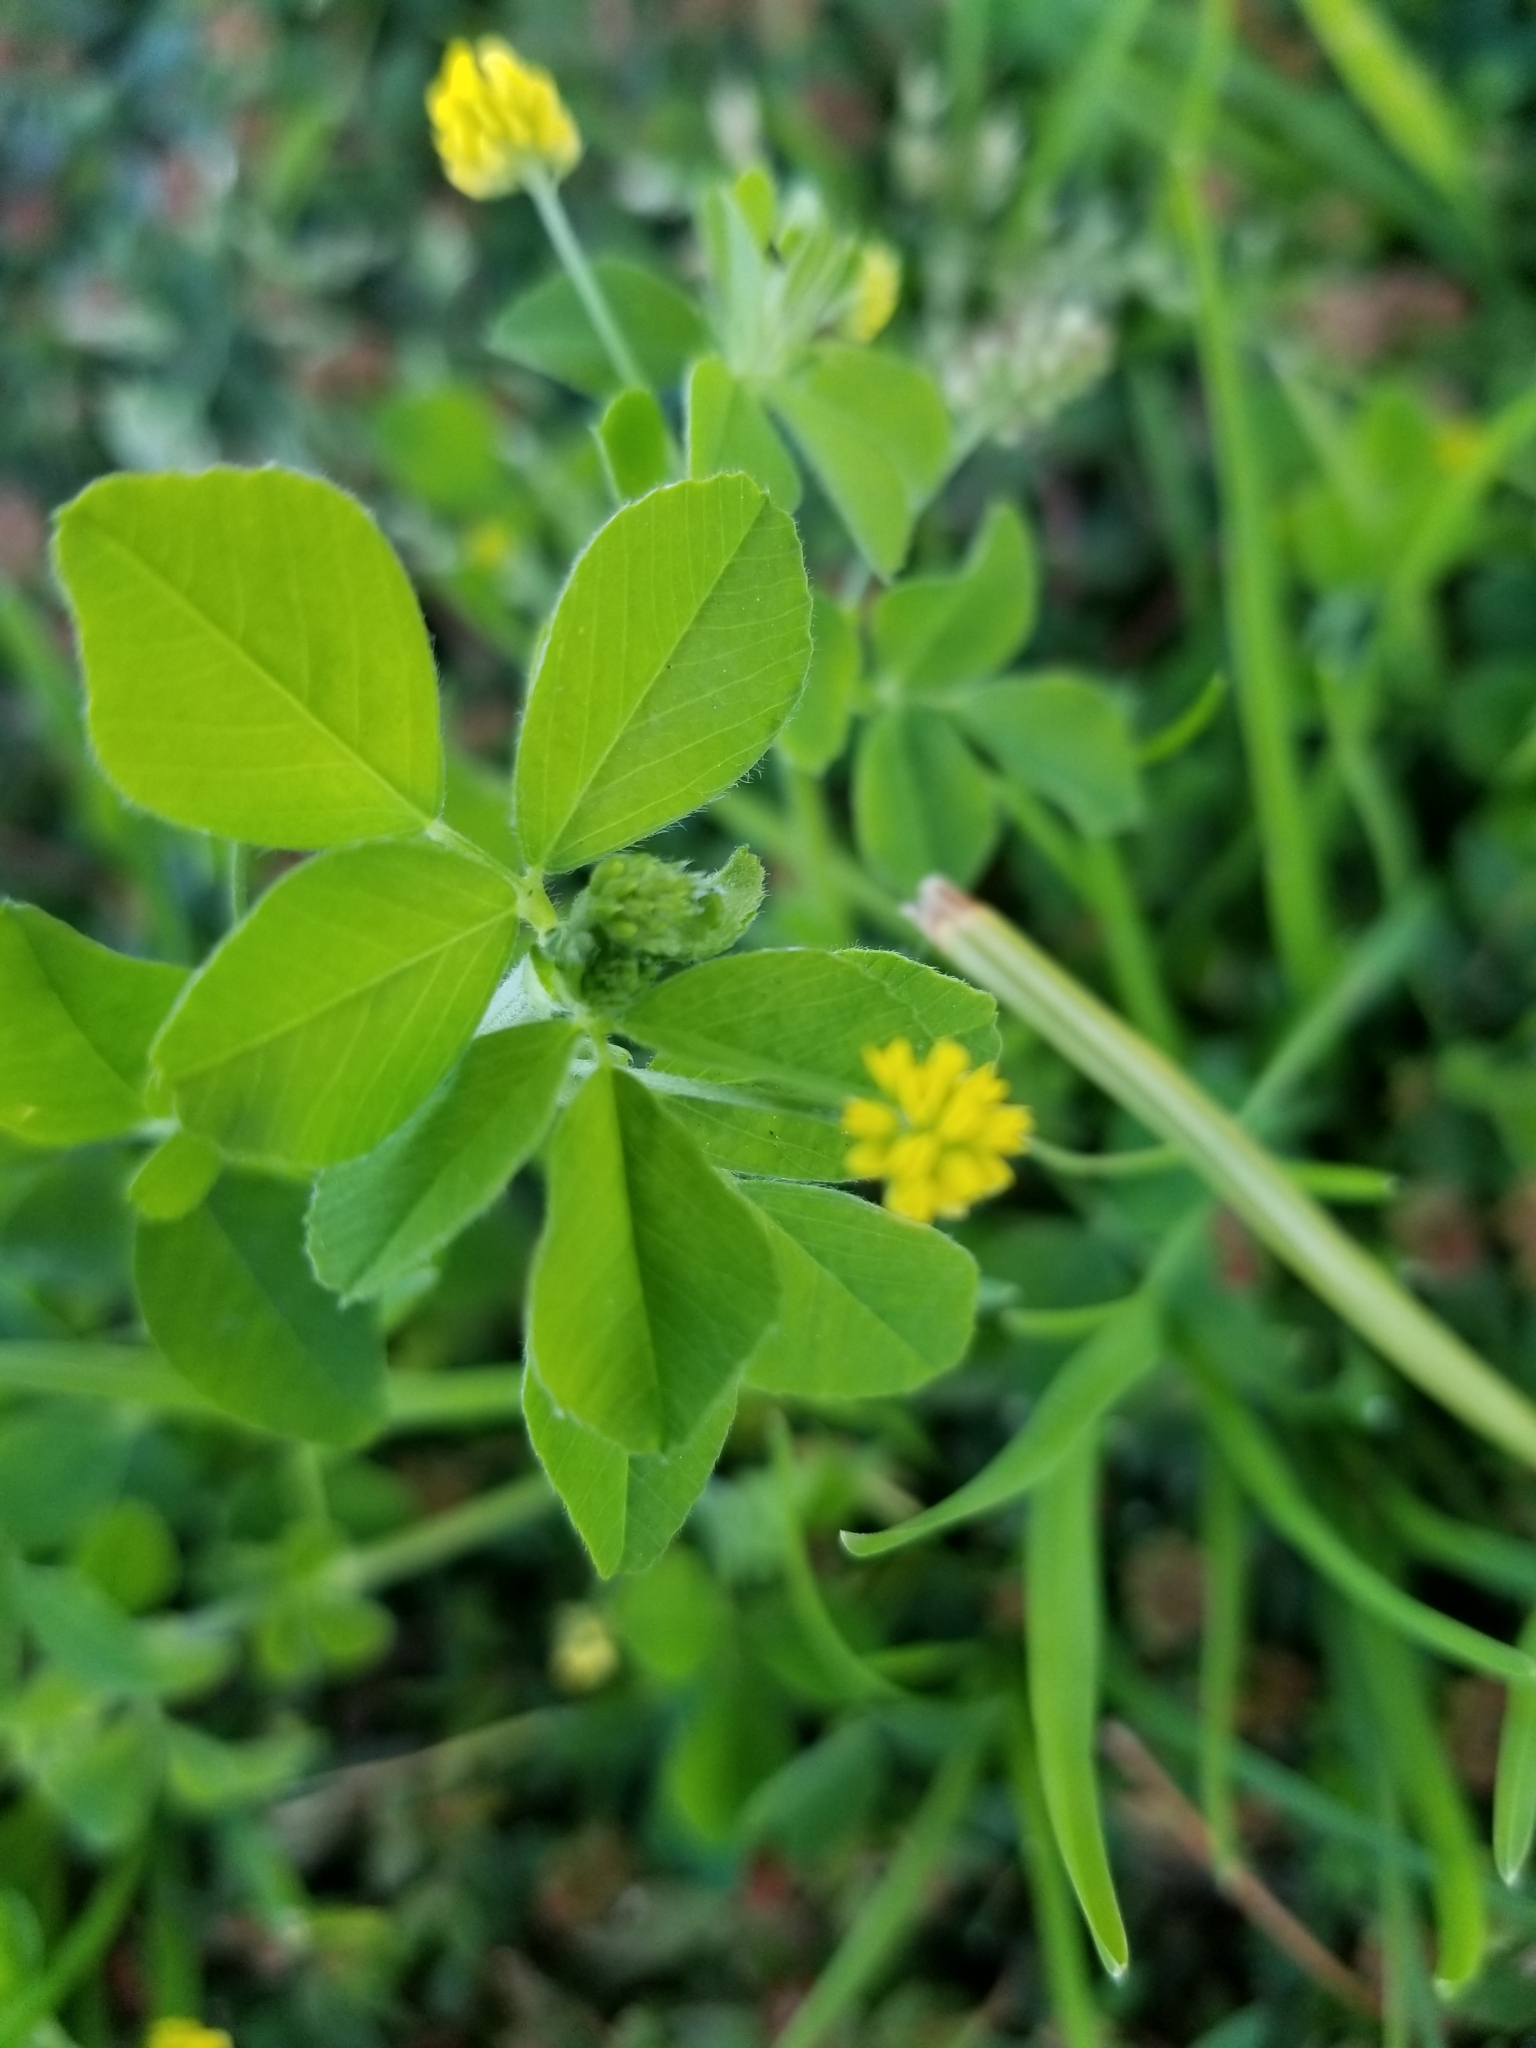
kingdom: Plantae
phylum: Tracheophyta
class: Magnoliopsida
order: Fabales
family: Fabaceae
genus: Medicago
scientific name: Medicago lupulina
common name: Black medick
